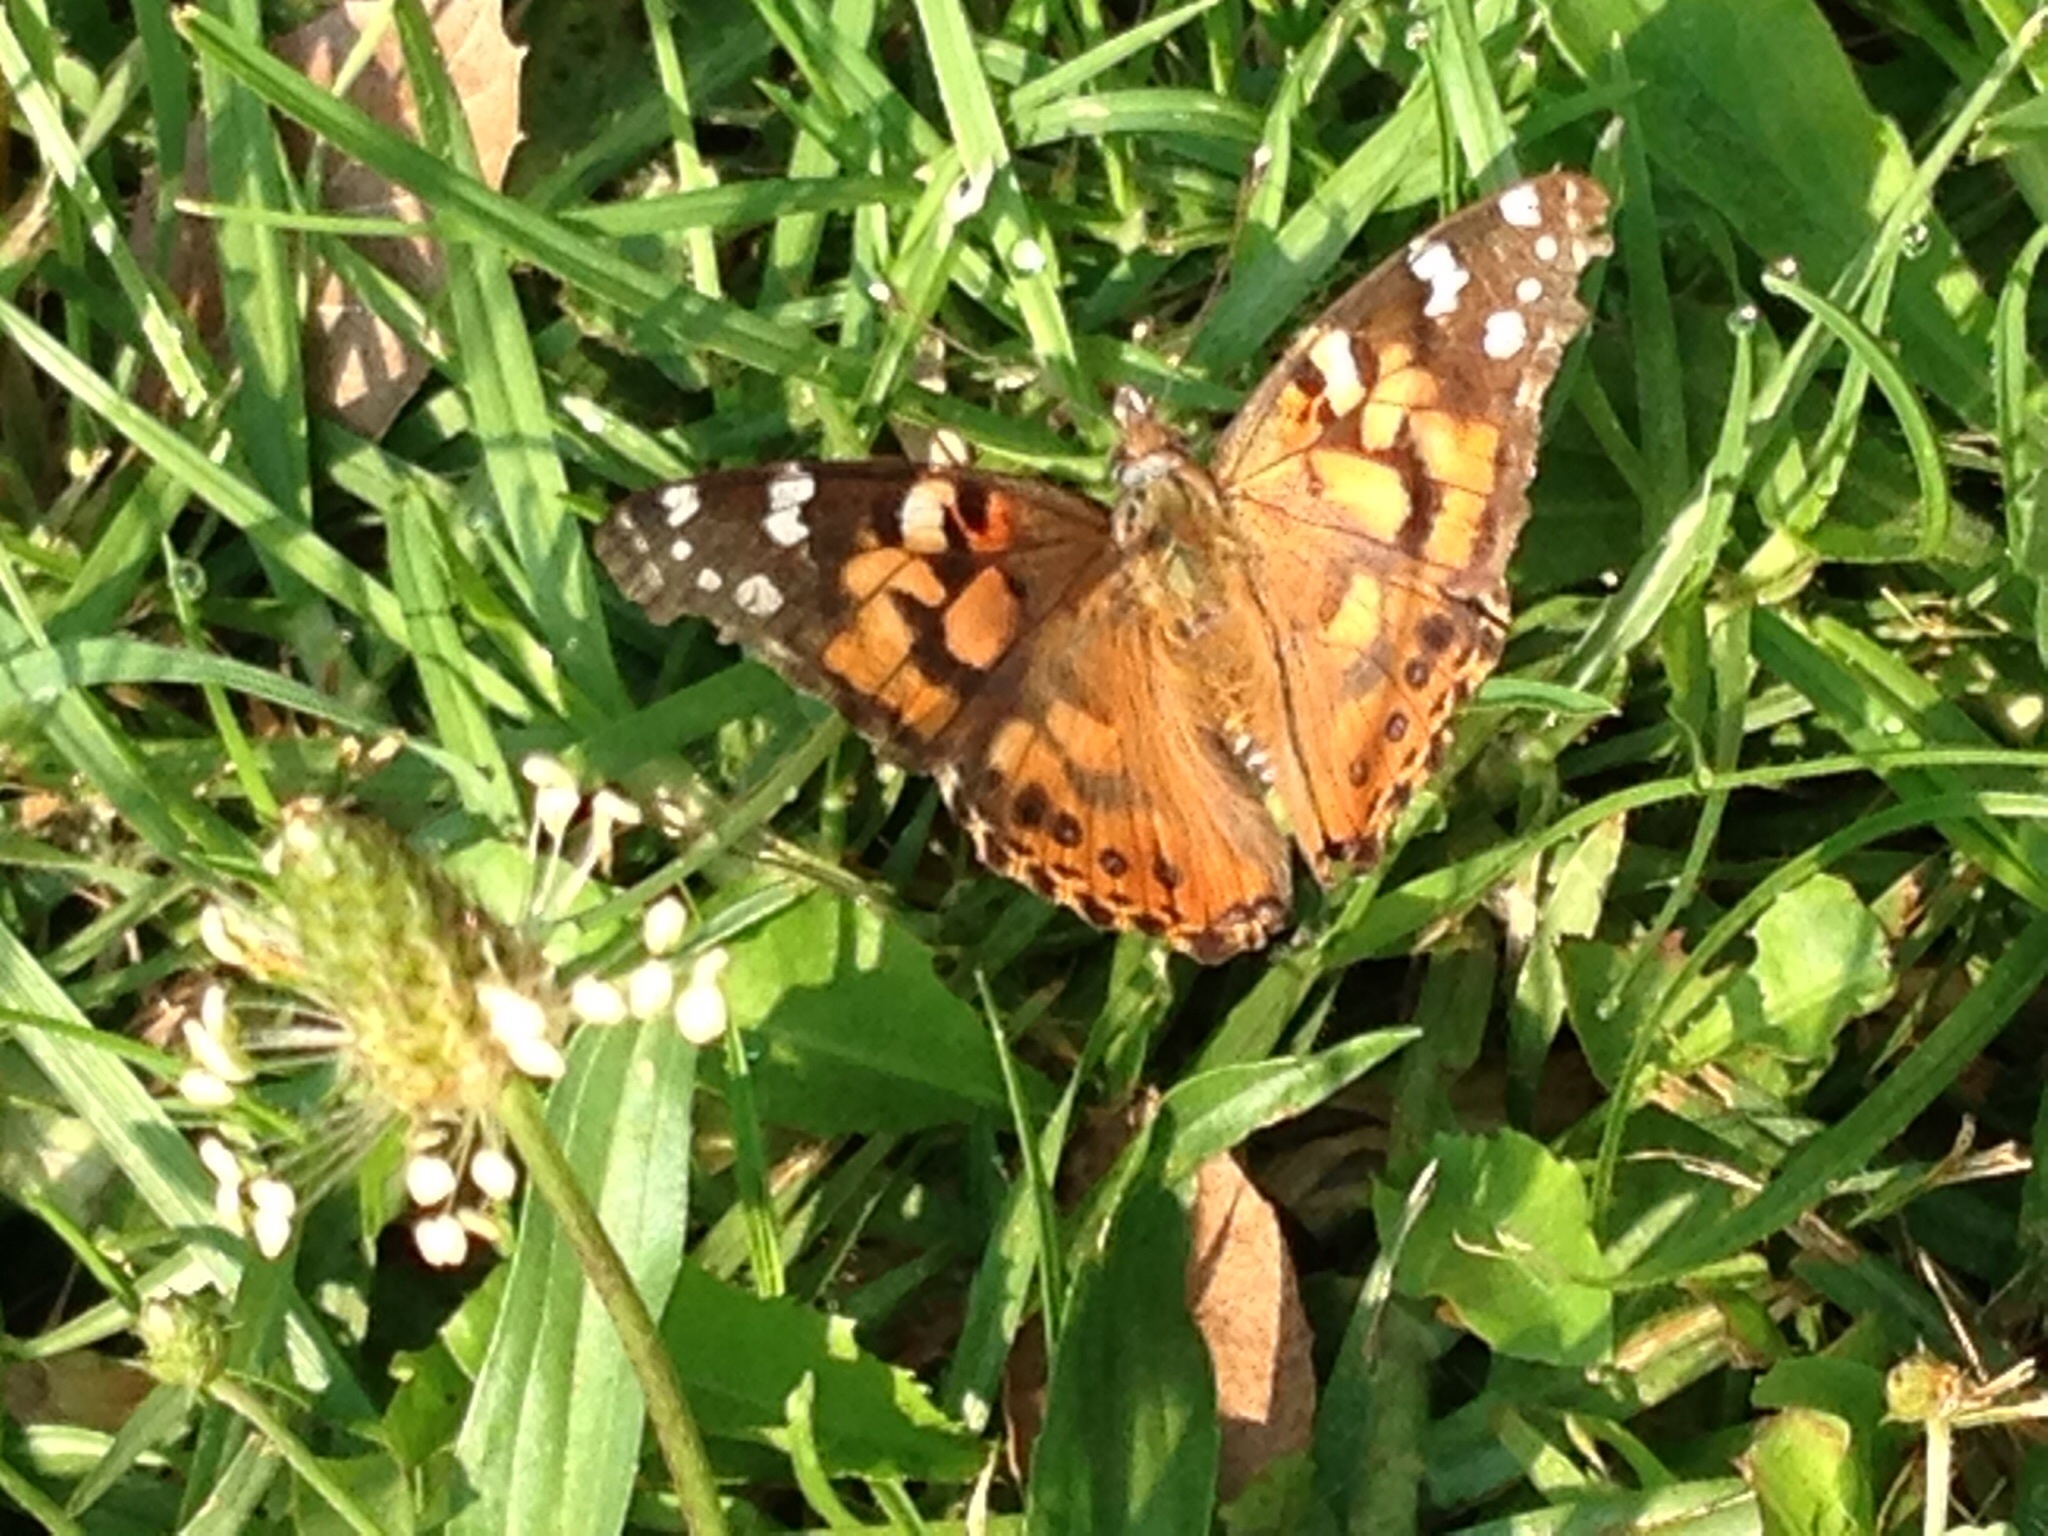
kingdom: Animalia
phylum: Arthropoda
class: Insecta
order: Lepidoptera
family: Nymphalidae
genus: Vanessa
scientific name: Vanessa cardui
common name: Painted lady
